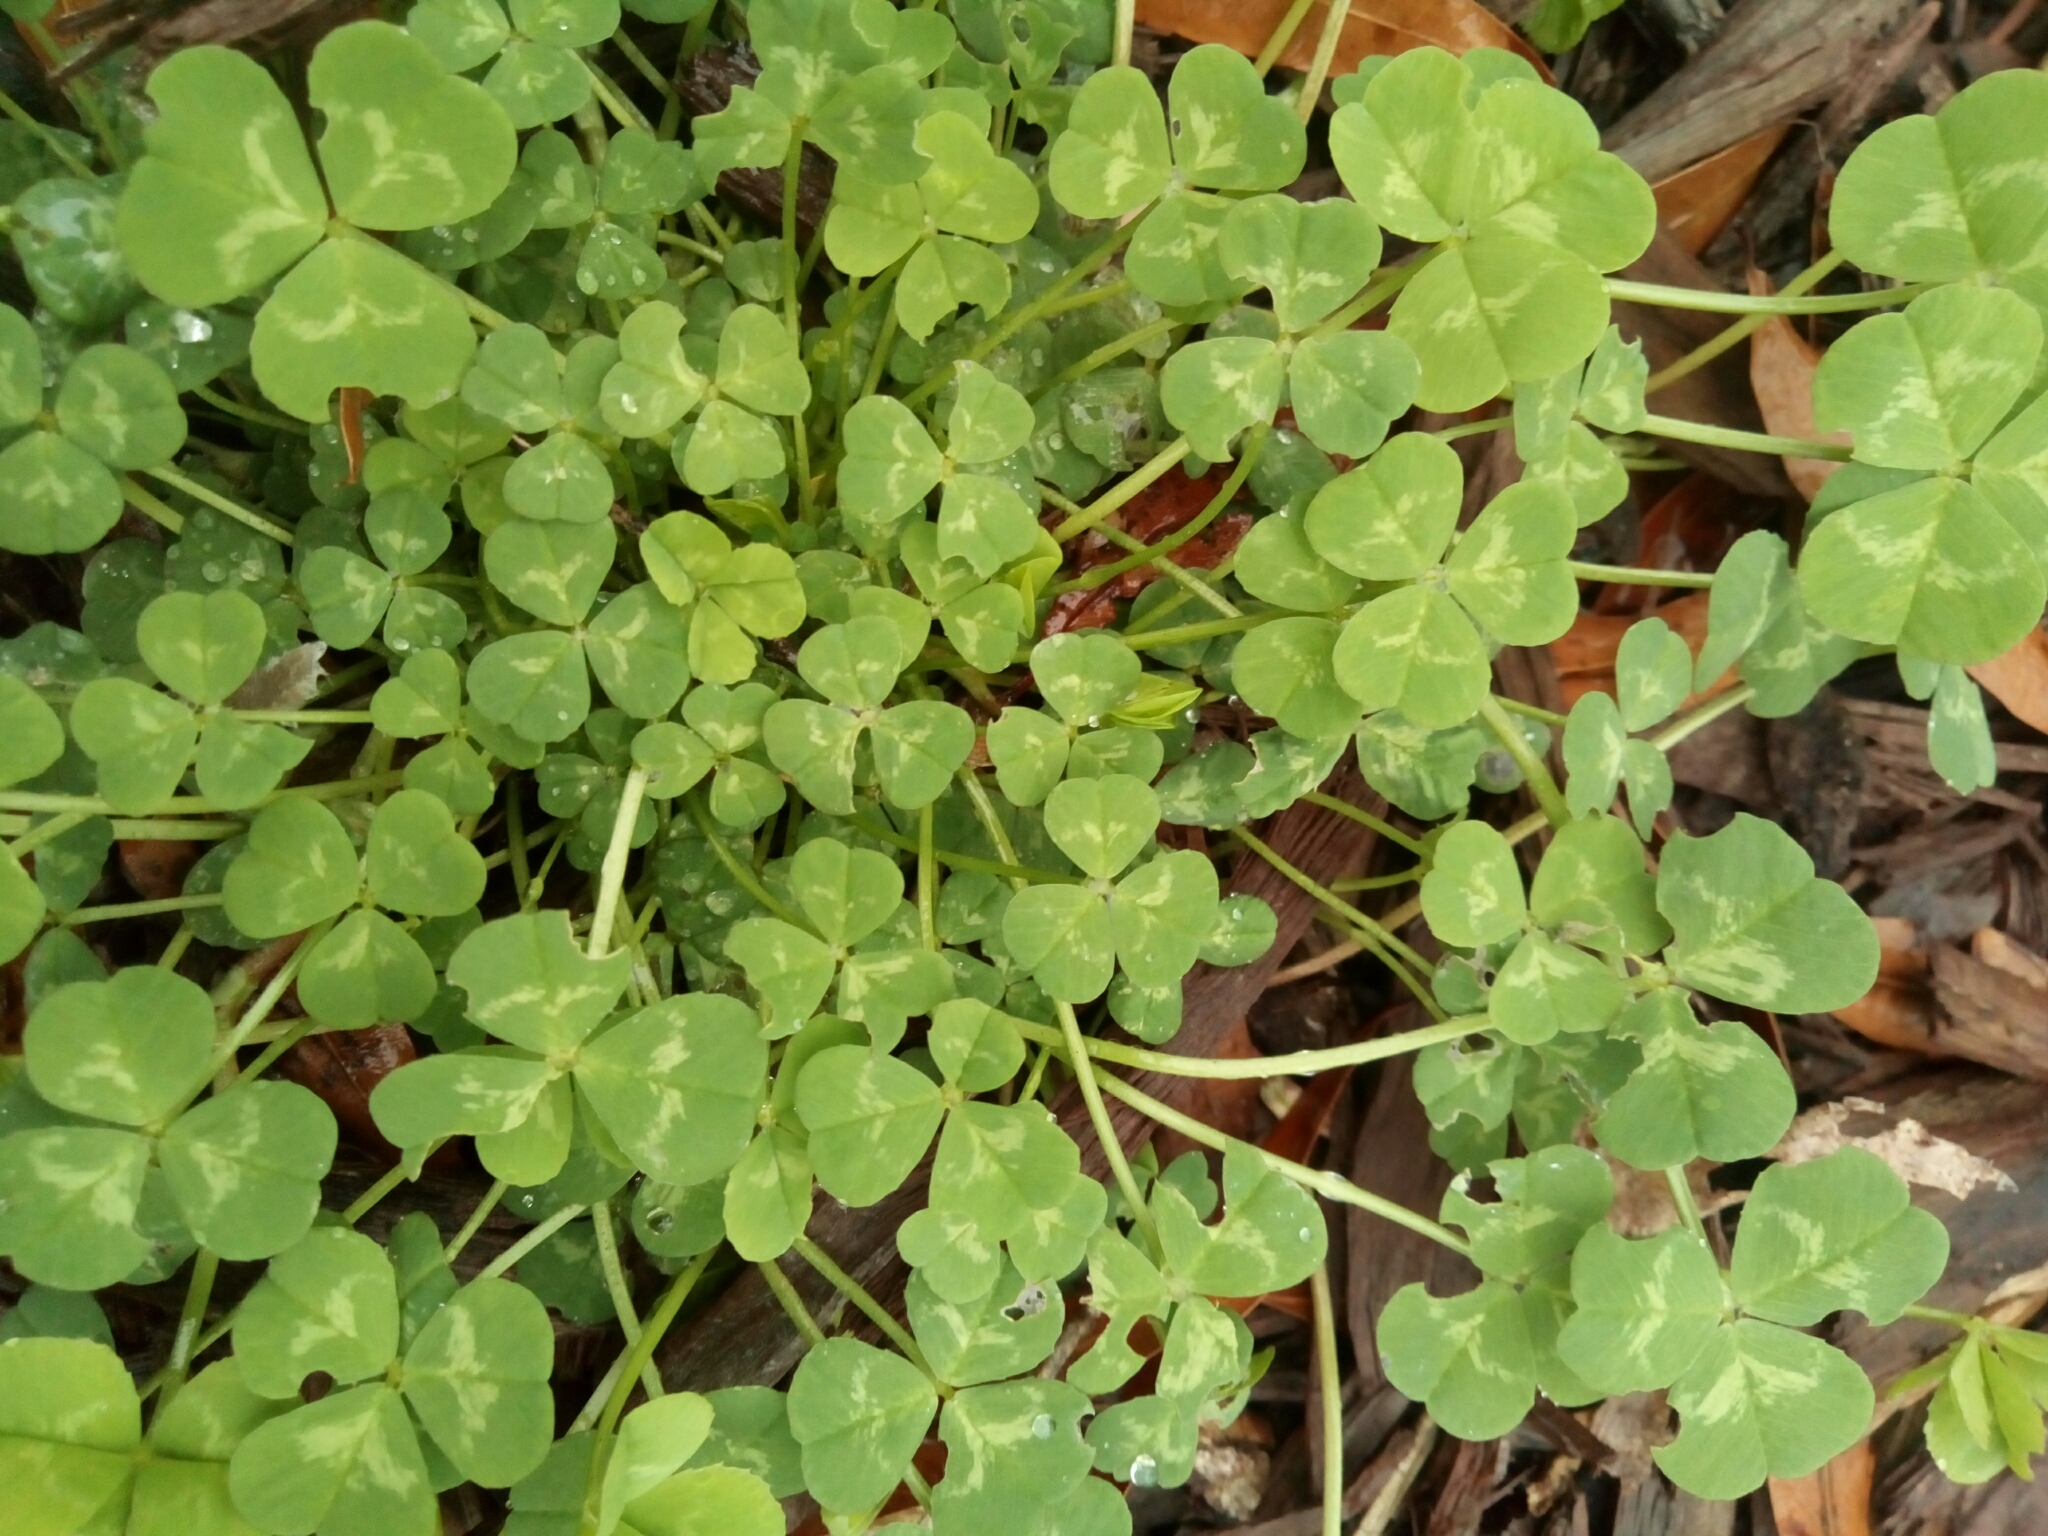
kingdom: Plantae
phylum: Tracheophyta
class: Magnoliopsida
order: Fabales
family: Fabaceae
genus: Trifolium
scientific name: Trifolium repens
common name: White clover
